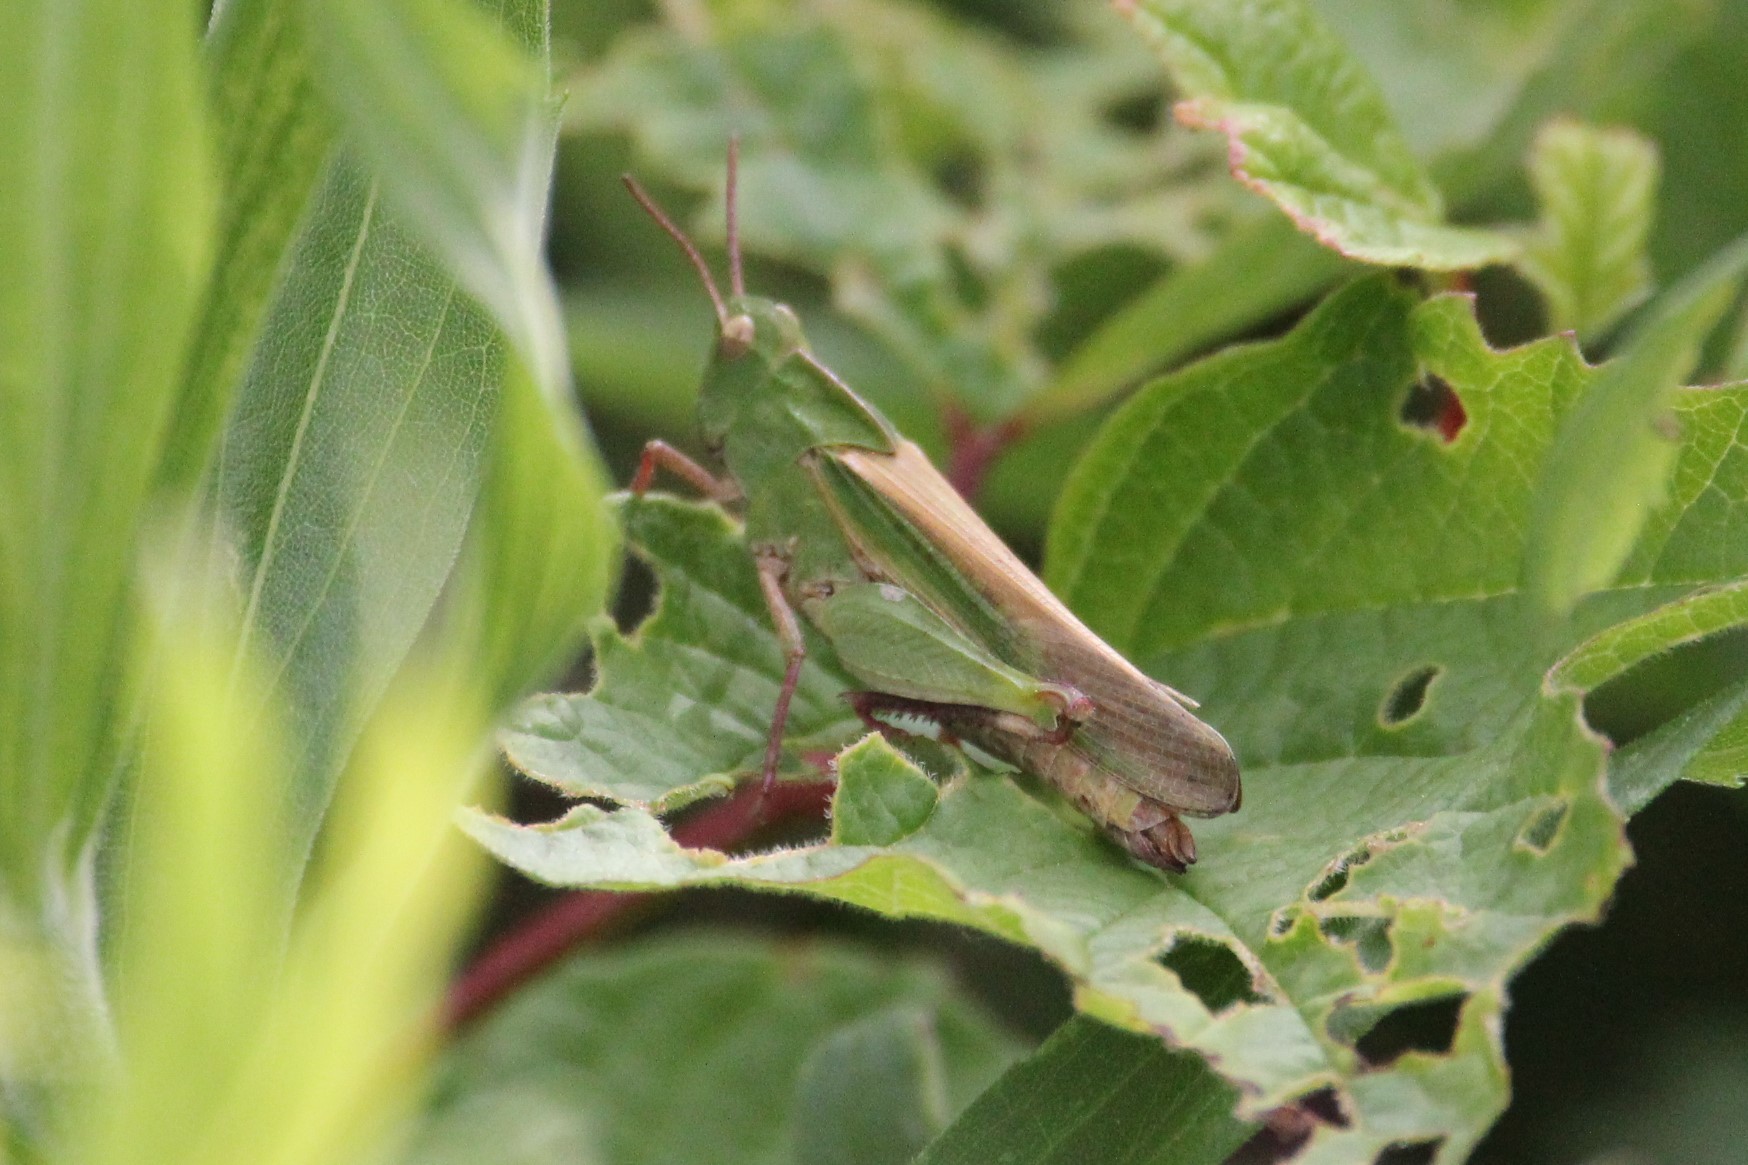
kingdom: Animalia
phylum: Arthropoda
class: Insecta
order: Orthoptera
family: Acrididae
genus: Chortophaga
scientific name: Chortophaga viridifasciata
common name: Green-striped grasshopper
